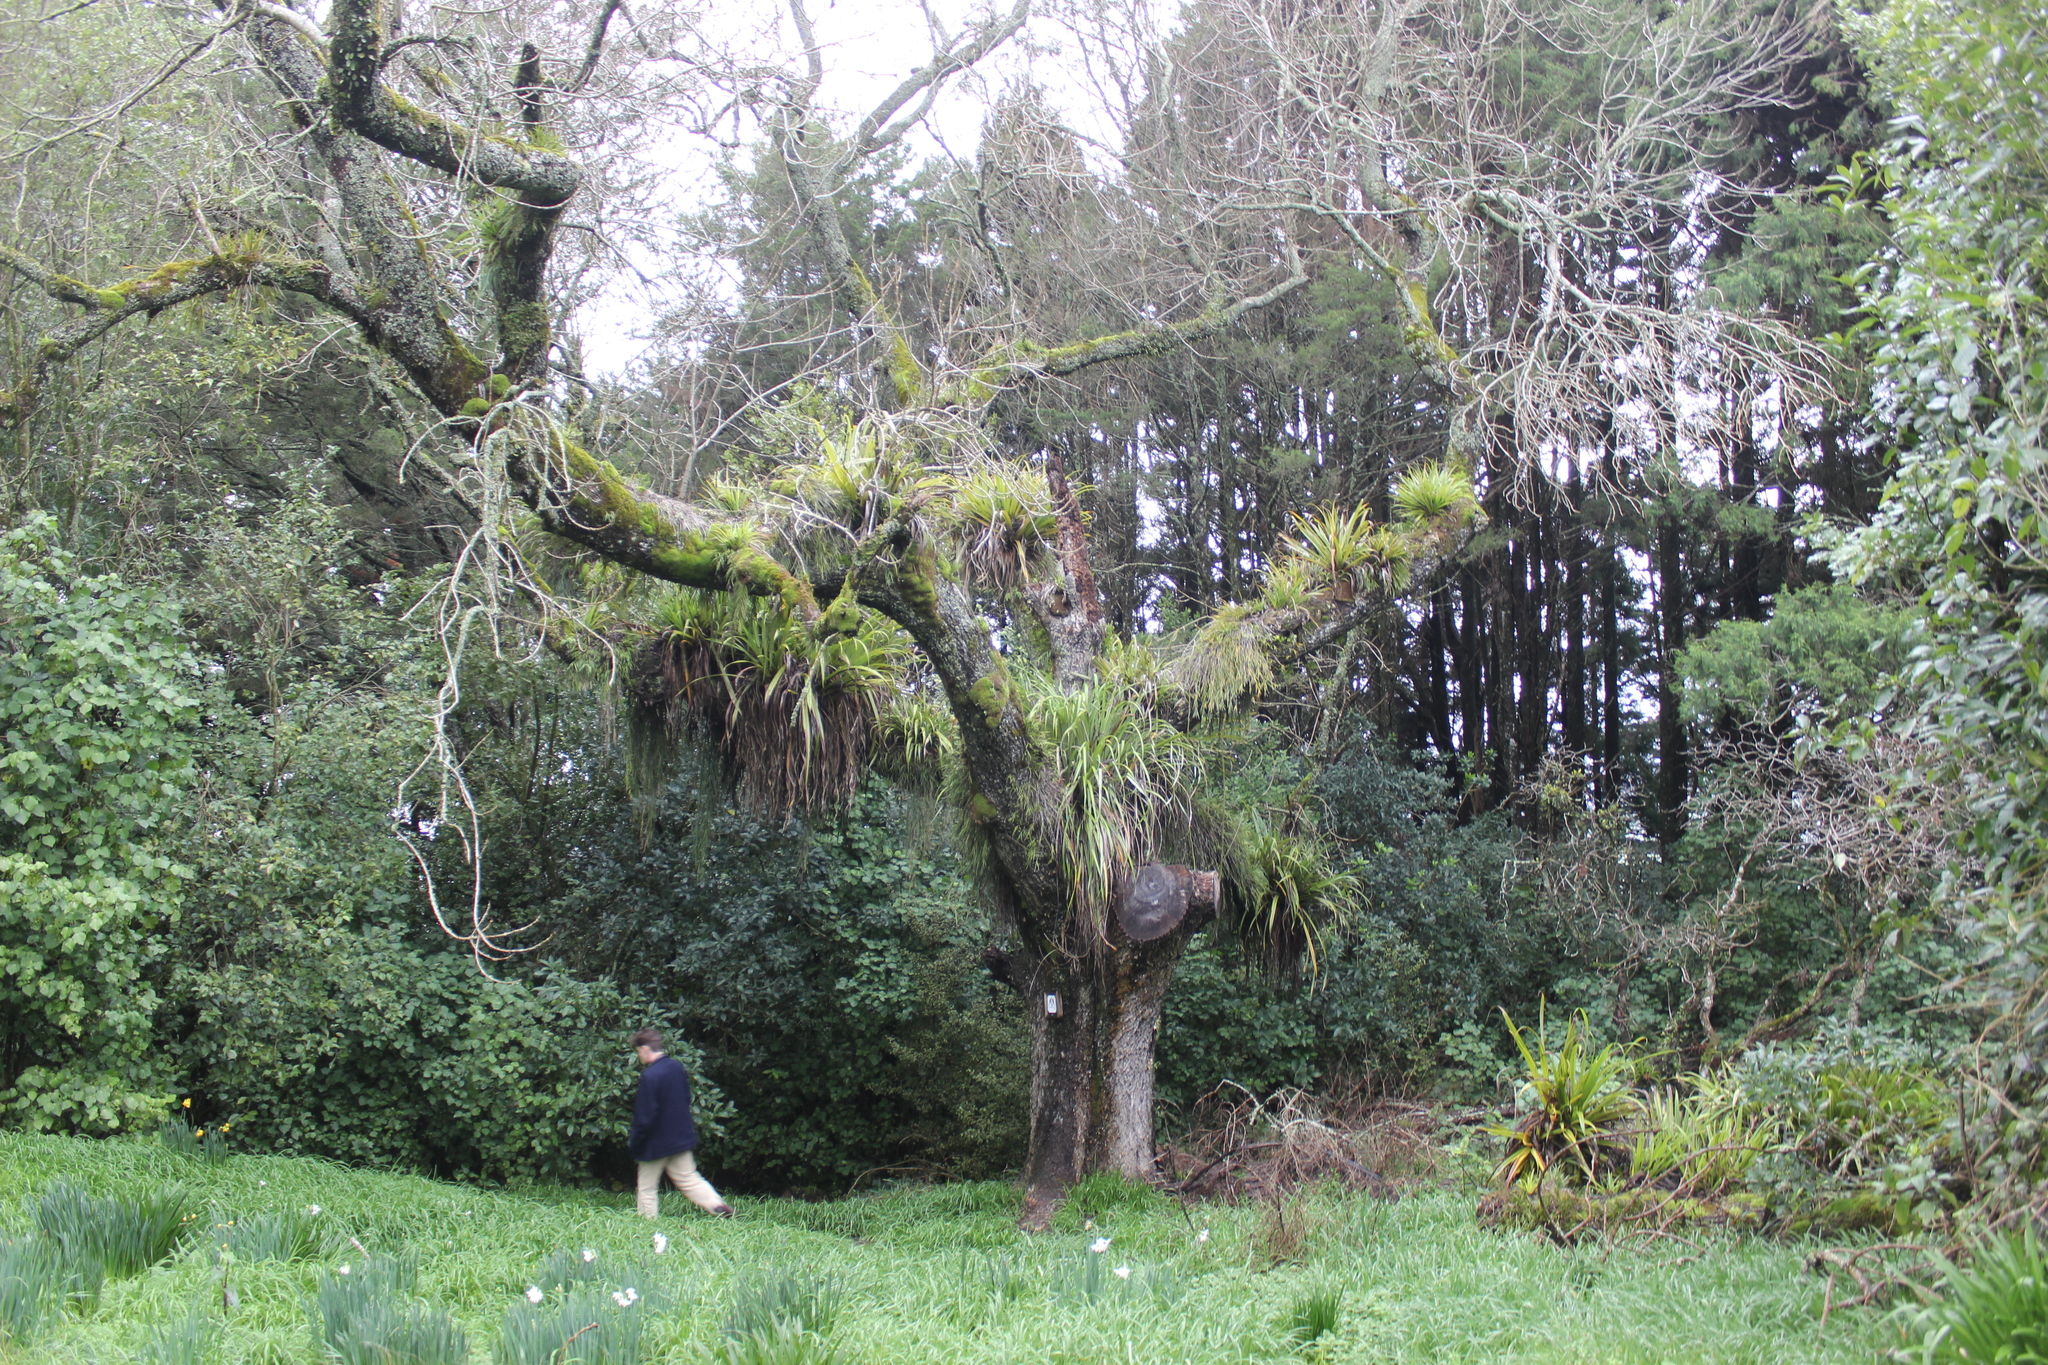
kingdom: Plantae
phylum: Tracheophyta
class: Liliopsida
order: Asparagales
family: Asteliaceae
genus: Astelia
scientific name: Astelia hastata
